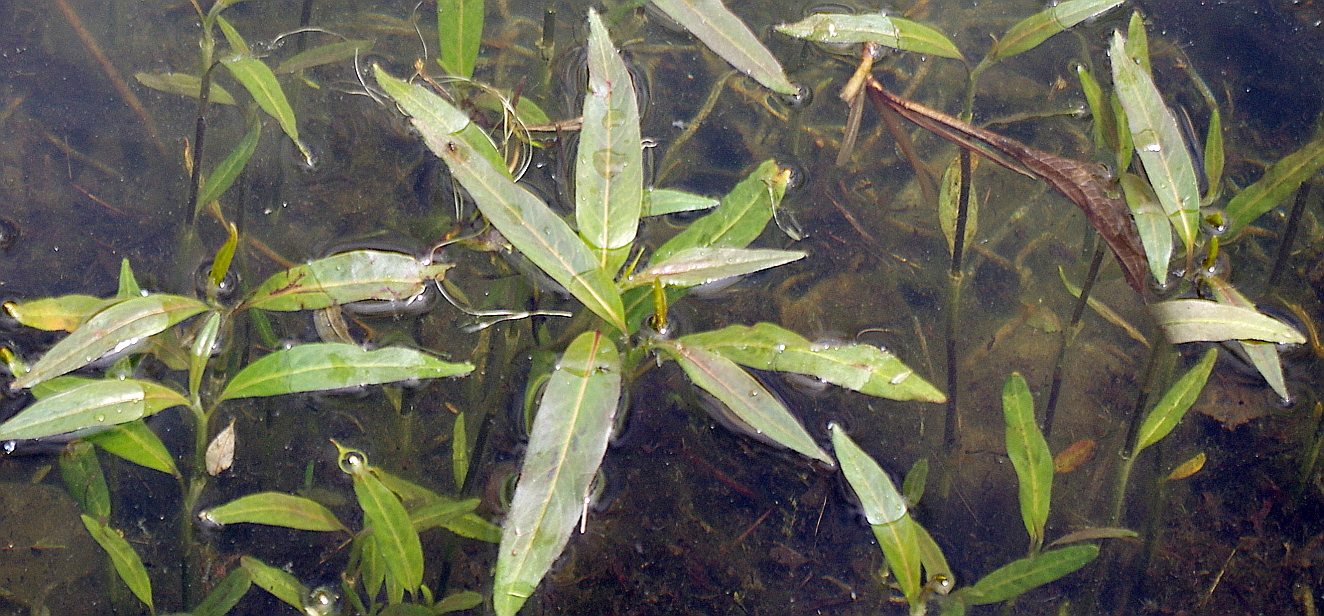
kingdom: Plantae
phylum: Tracheophyta
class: Magnoliopsida
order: Caryophyllales
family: Polygonaceae
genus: Persicaria
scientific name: Persicaria amphibia
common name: Amphibious bistort
